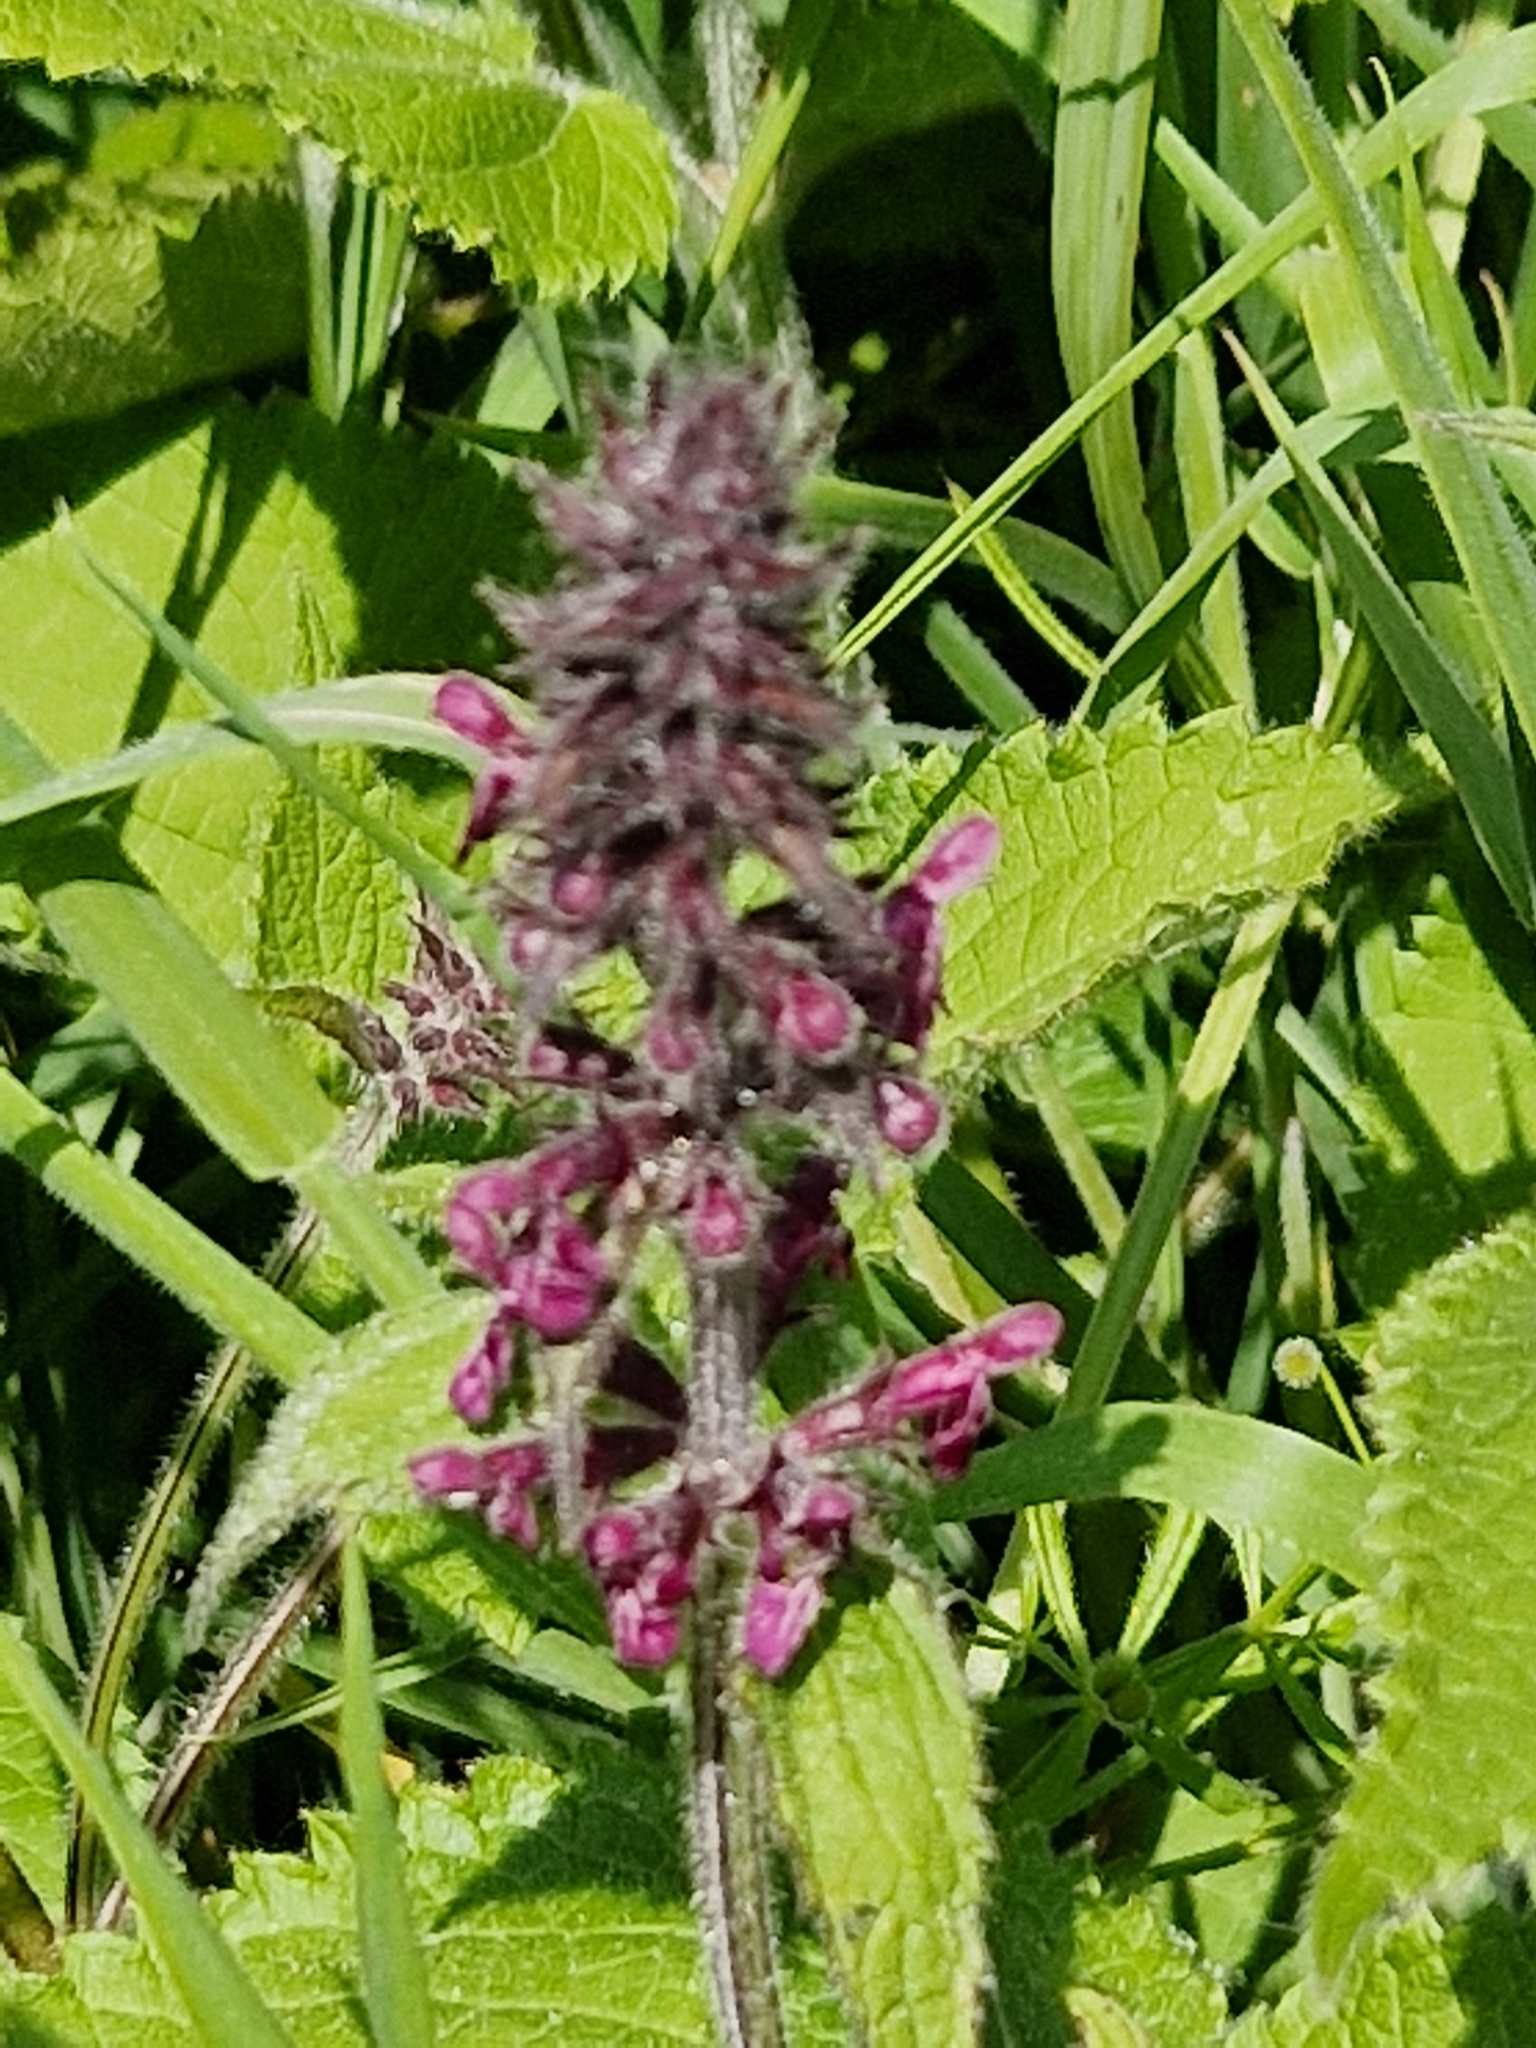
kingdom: Plantae
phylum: Tracheophyta
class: Magnoliopsida
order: Lamiales
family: Lamiaceae
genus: Stachys
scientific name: Stachys sylvatica
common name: Hedge woundwort
